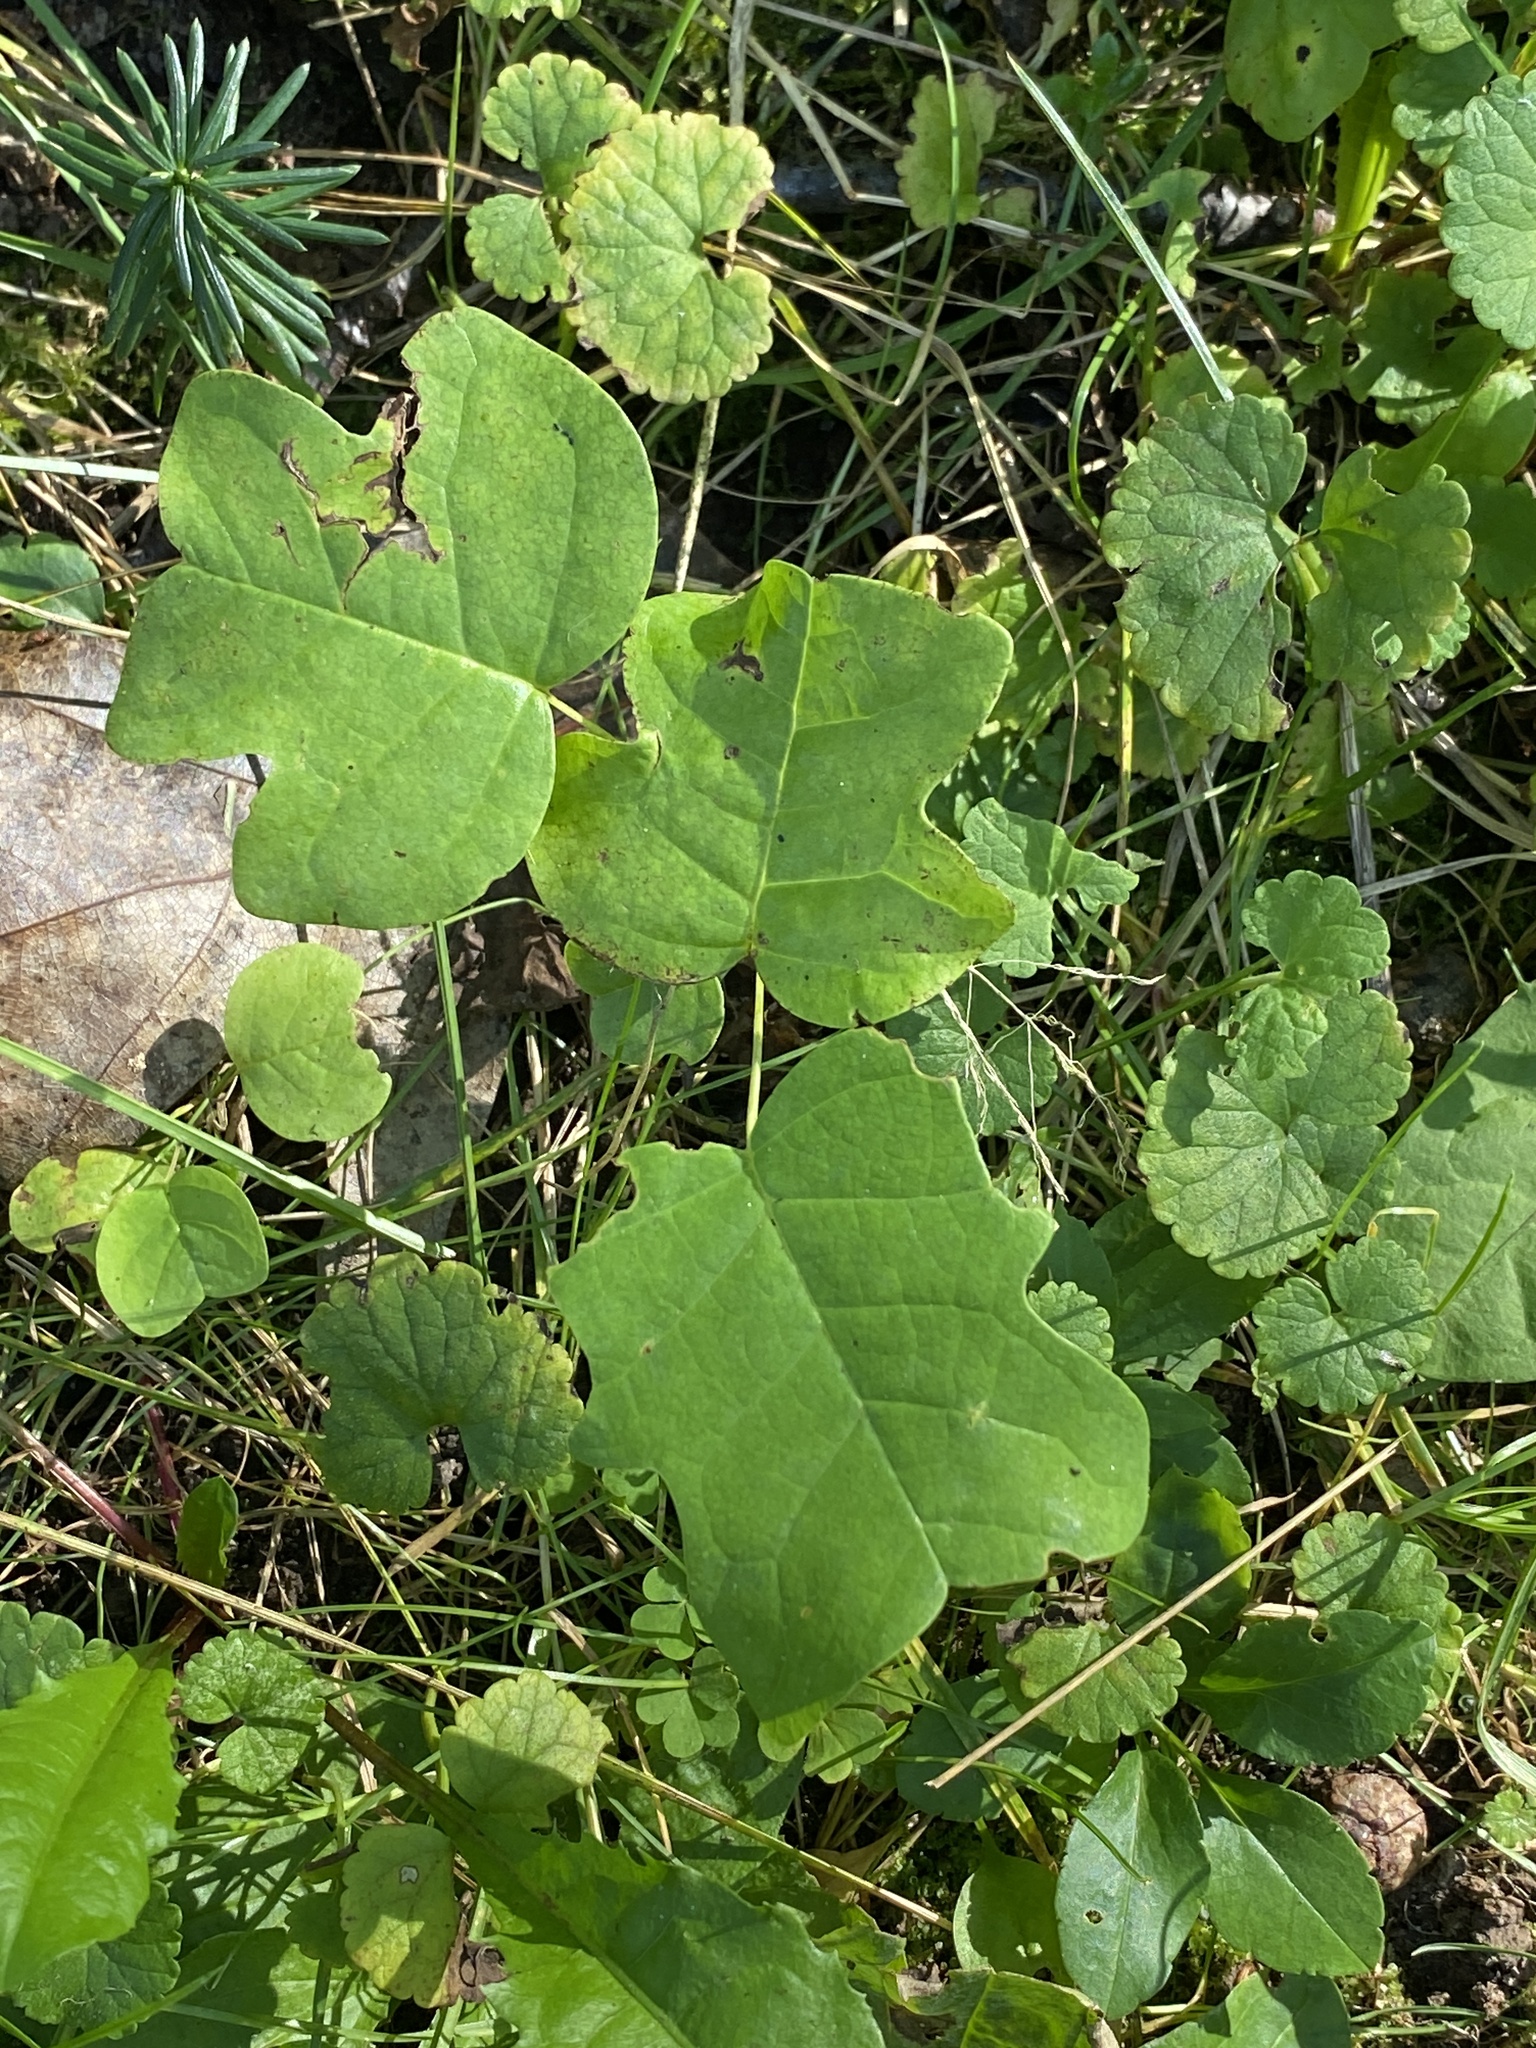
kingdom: Plantae
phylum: Tracheophyta
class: Magnoliopsida
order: Magnoliales
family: Magnoliaceae
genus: Liriodendron
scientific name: Liriodendron tulipifera
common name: Tulip tree
